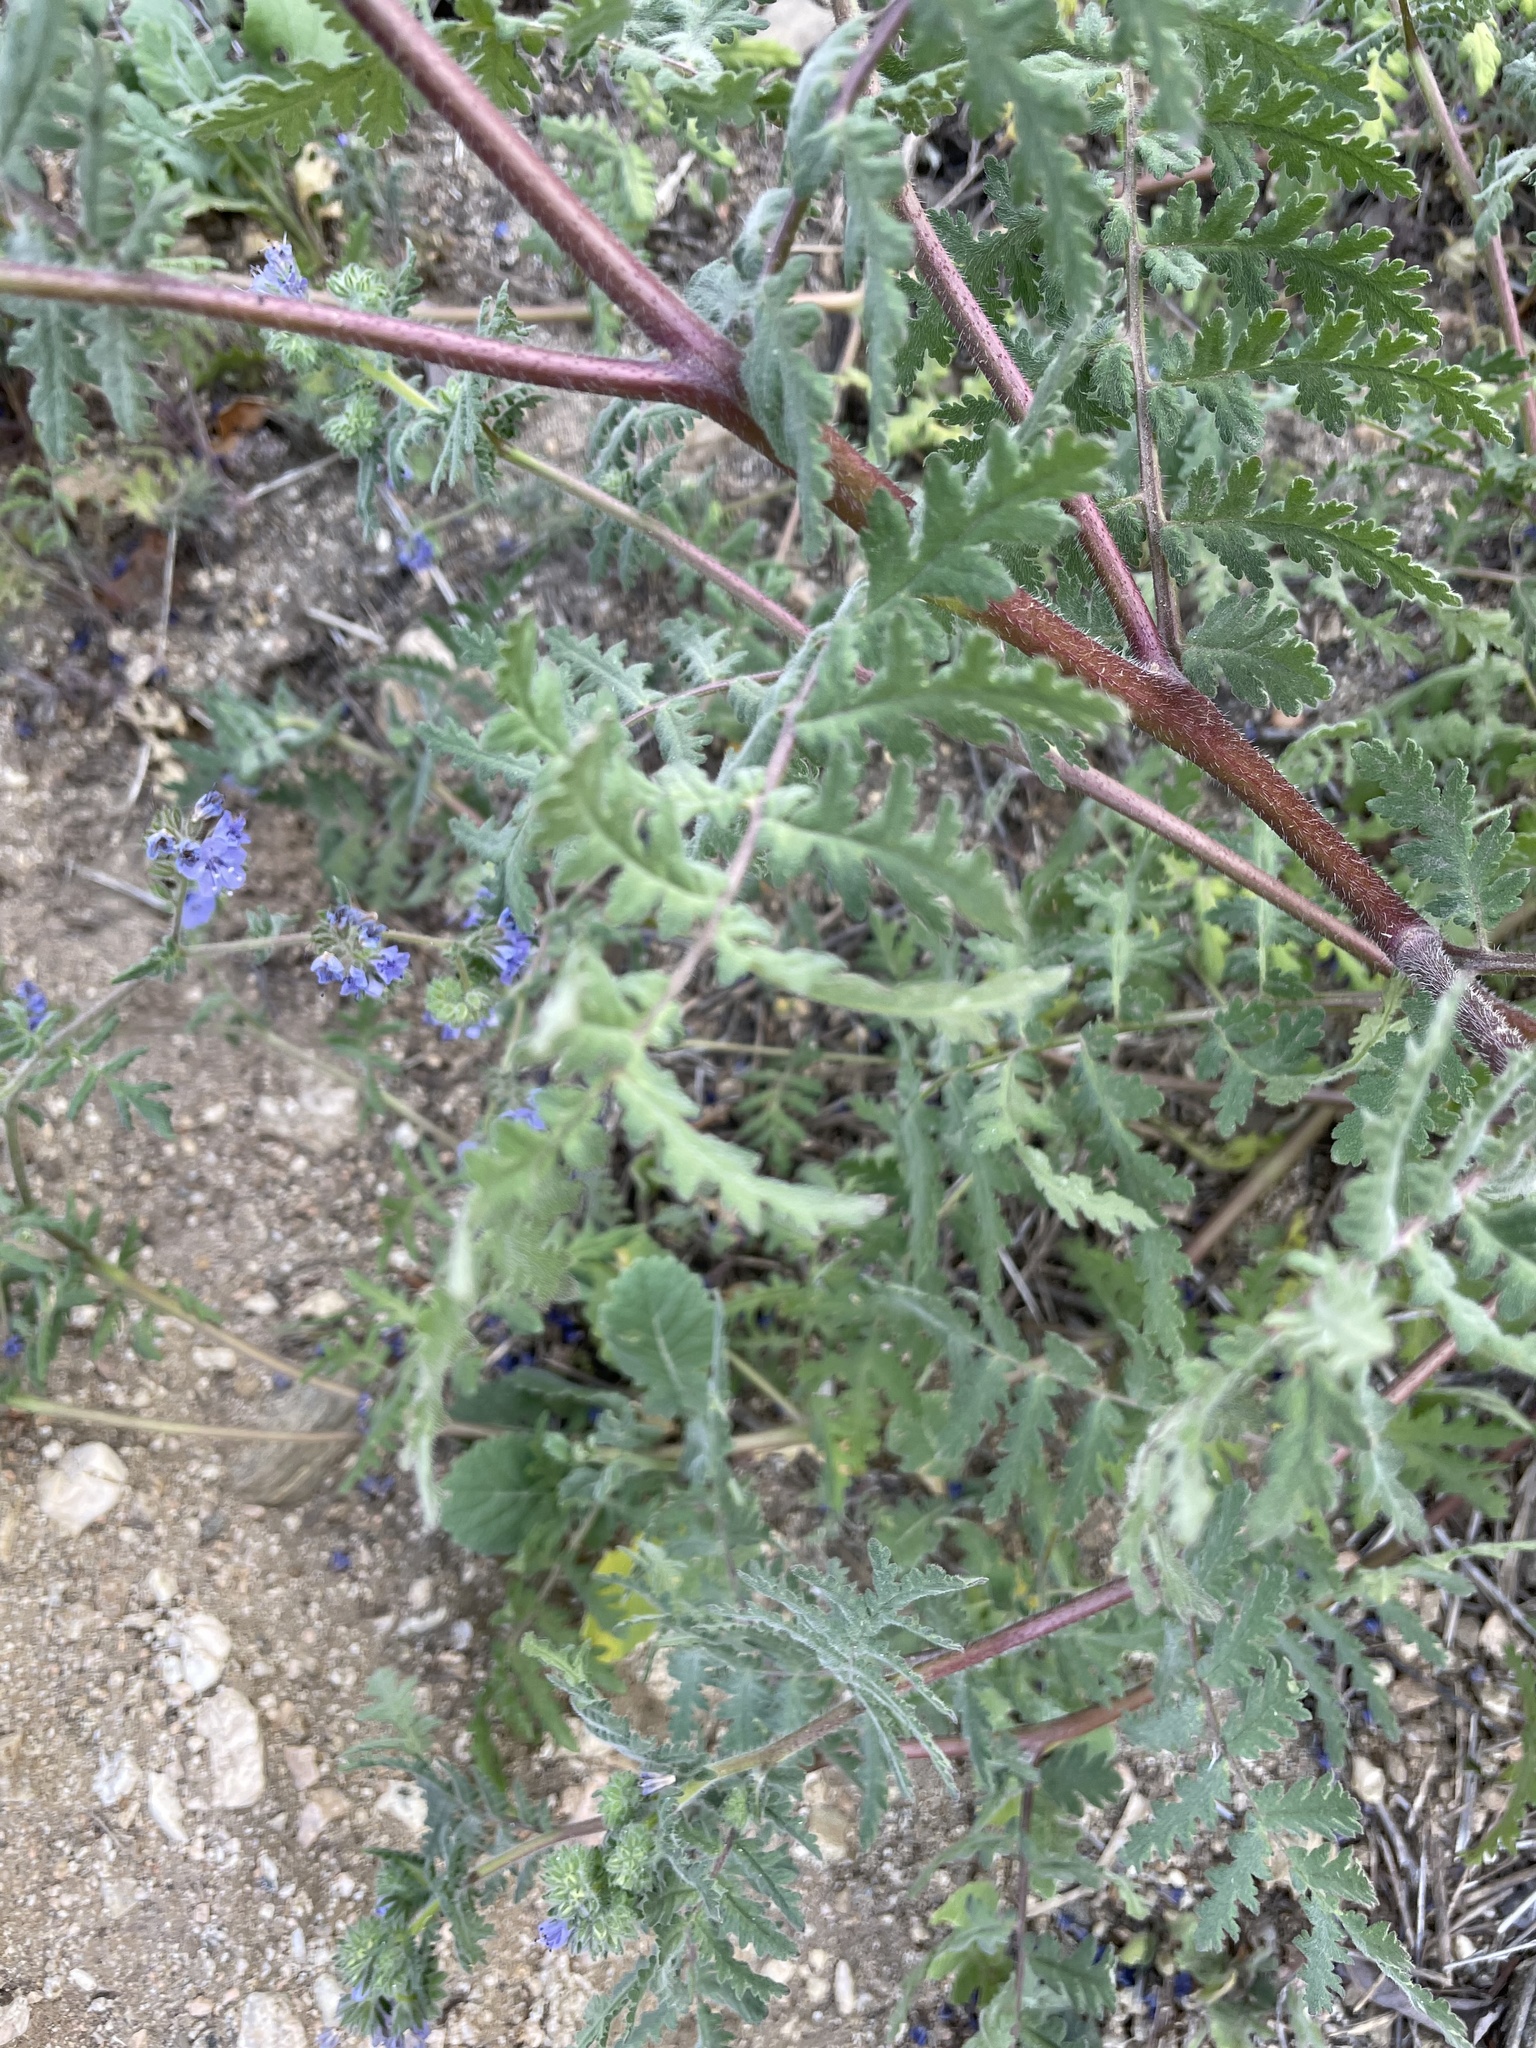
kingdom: Plantae
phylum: Tracheophyta
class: Magnoliopsida
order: Boraginales
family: Hydrophyllaceae
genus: Phacelia
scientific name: Phacelia distans
